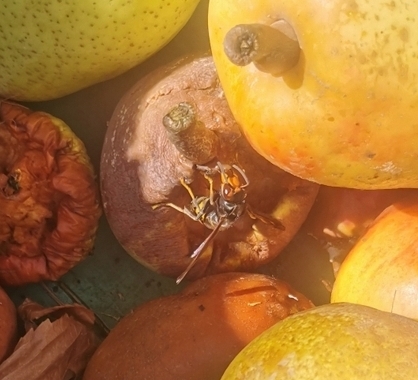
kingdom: Animalia
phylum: Arthropoda
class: Insecta
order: Hymenoptera
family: Vespidae
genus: Vespa
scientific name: Vespa velutina
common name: Asian hornet
